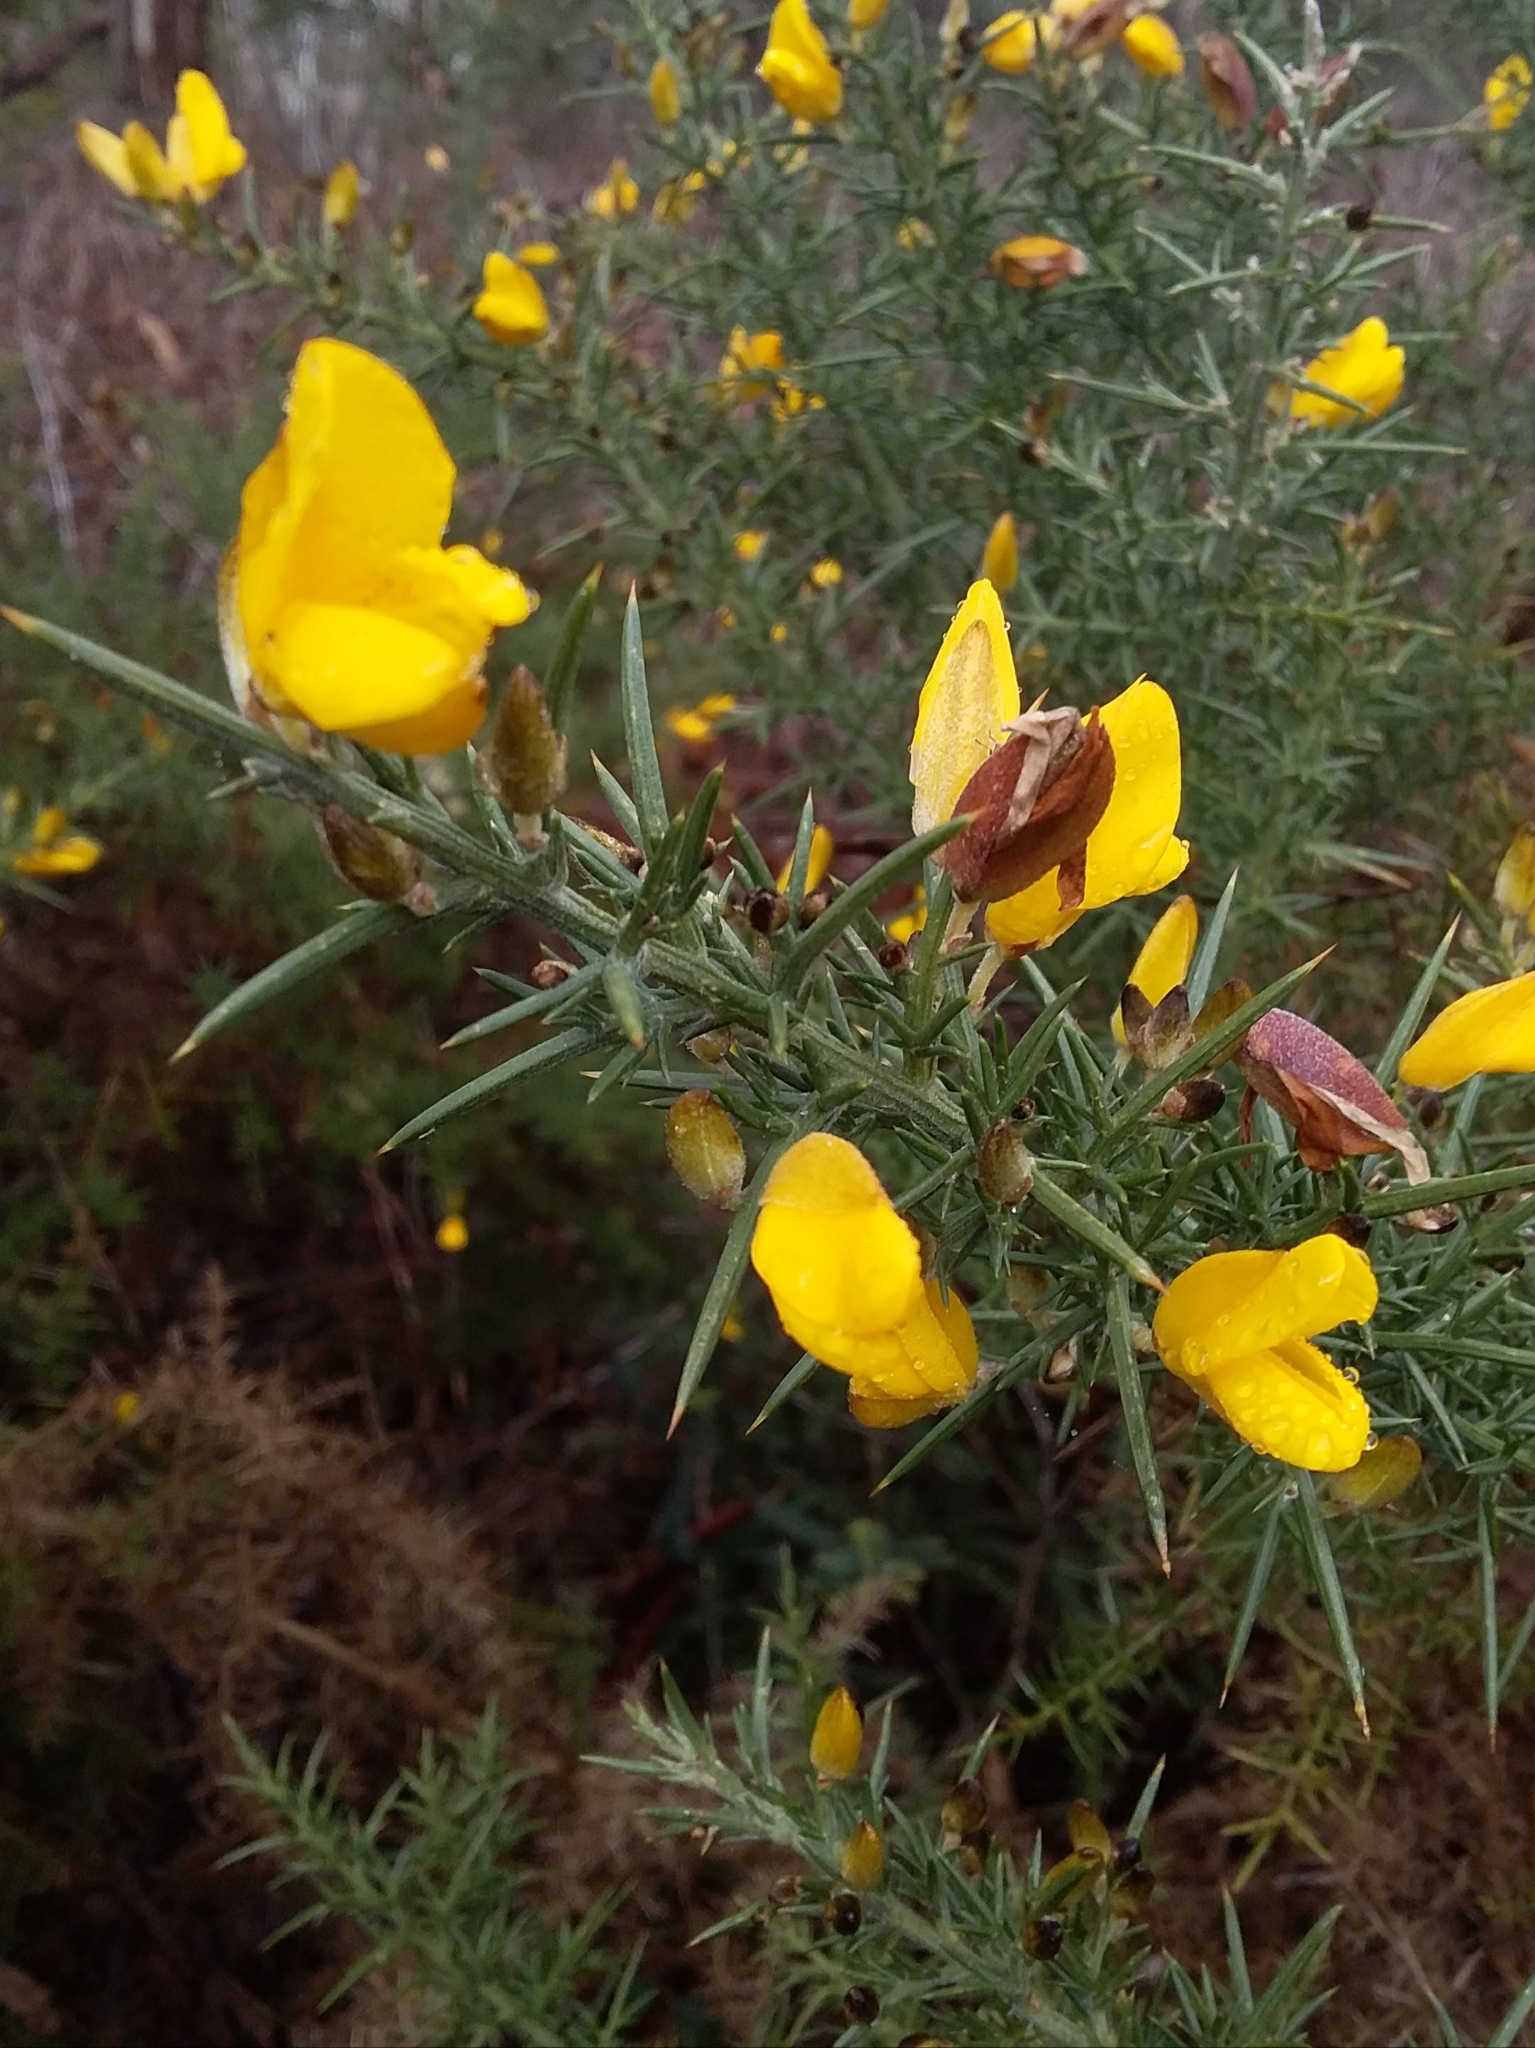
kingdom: Plantae
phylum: Tracheophyta
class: Magnoliopsida
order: Fabales
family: Fabaceae
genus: Ulex
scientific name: Ulex europaeus
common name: Common gorse
